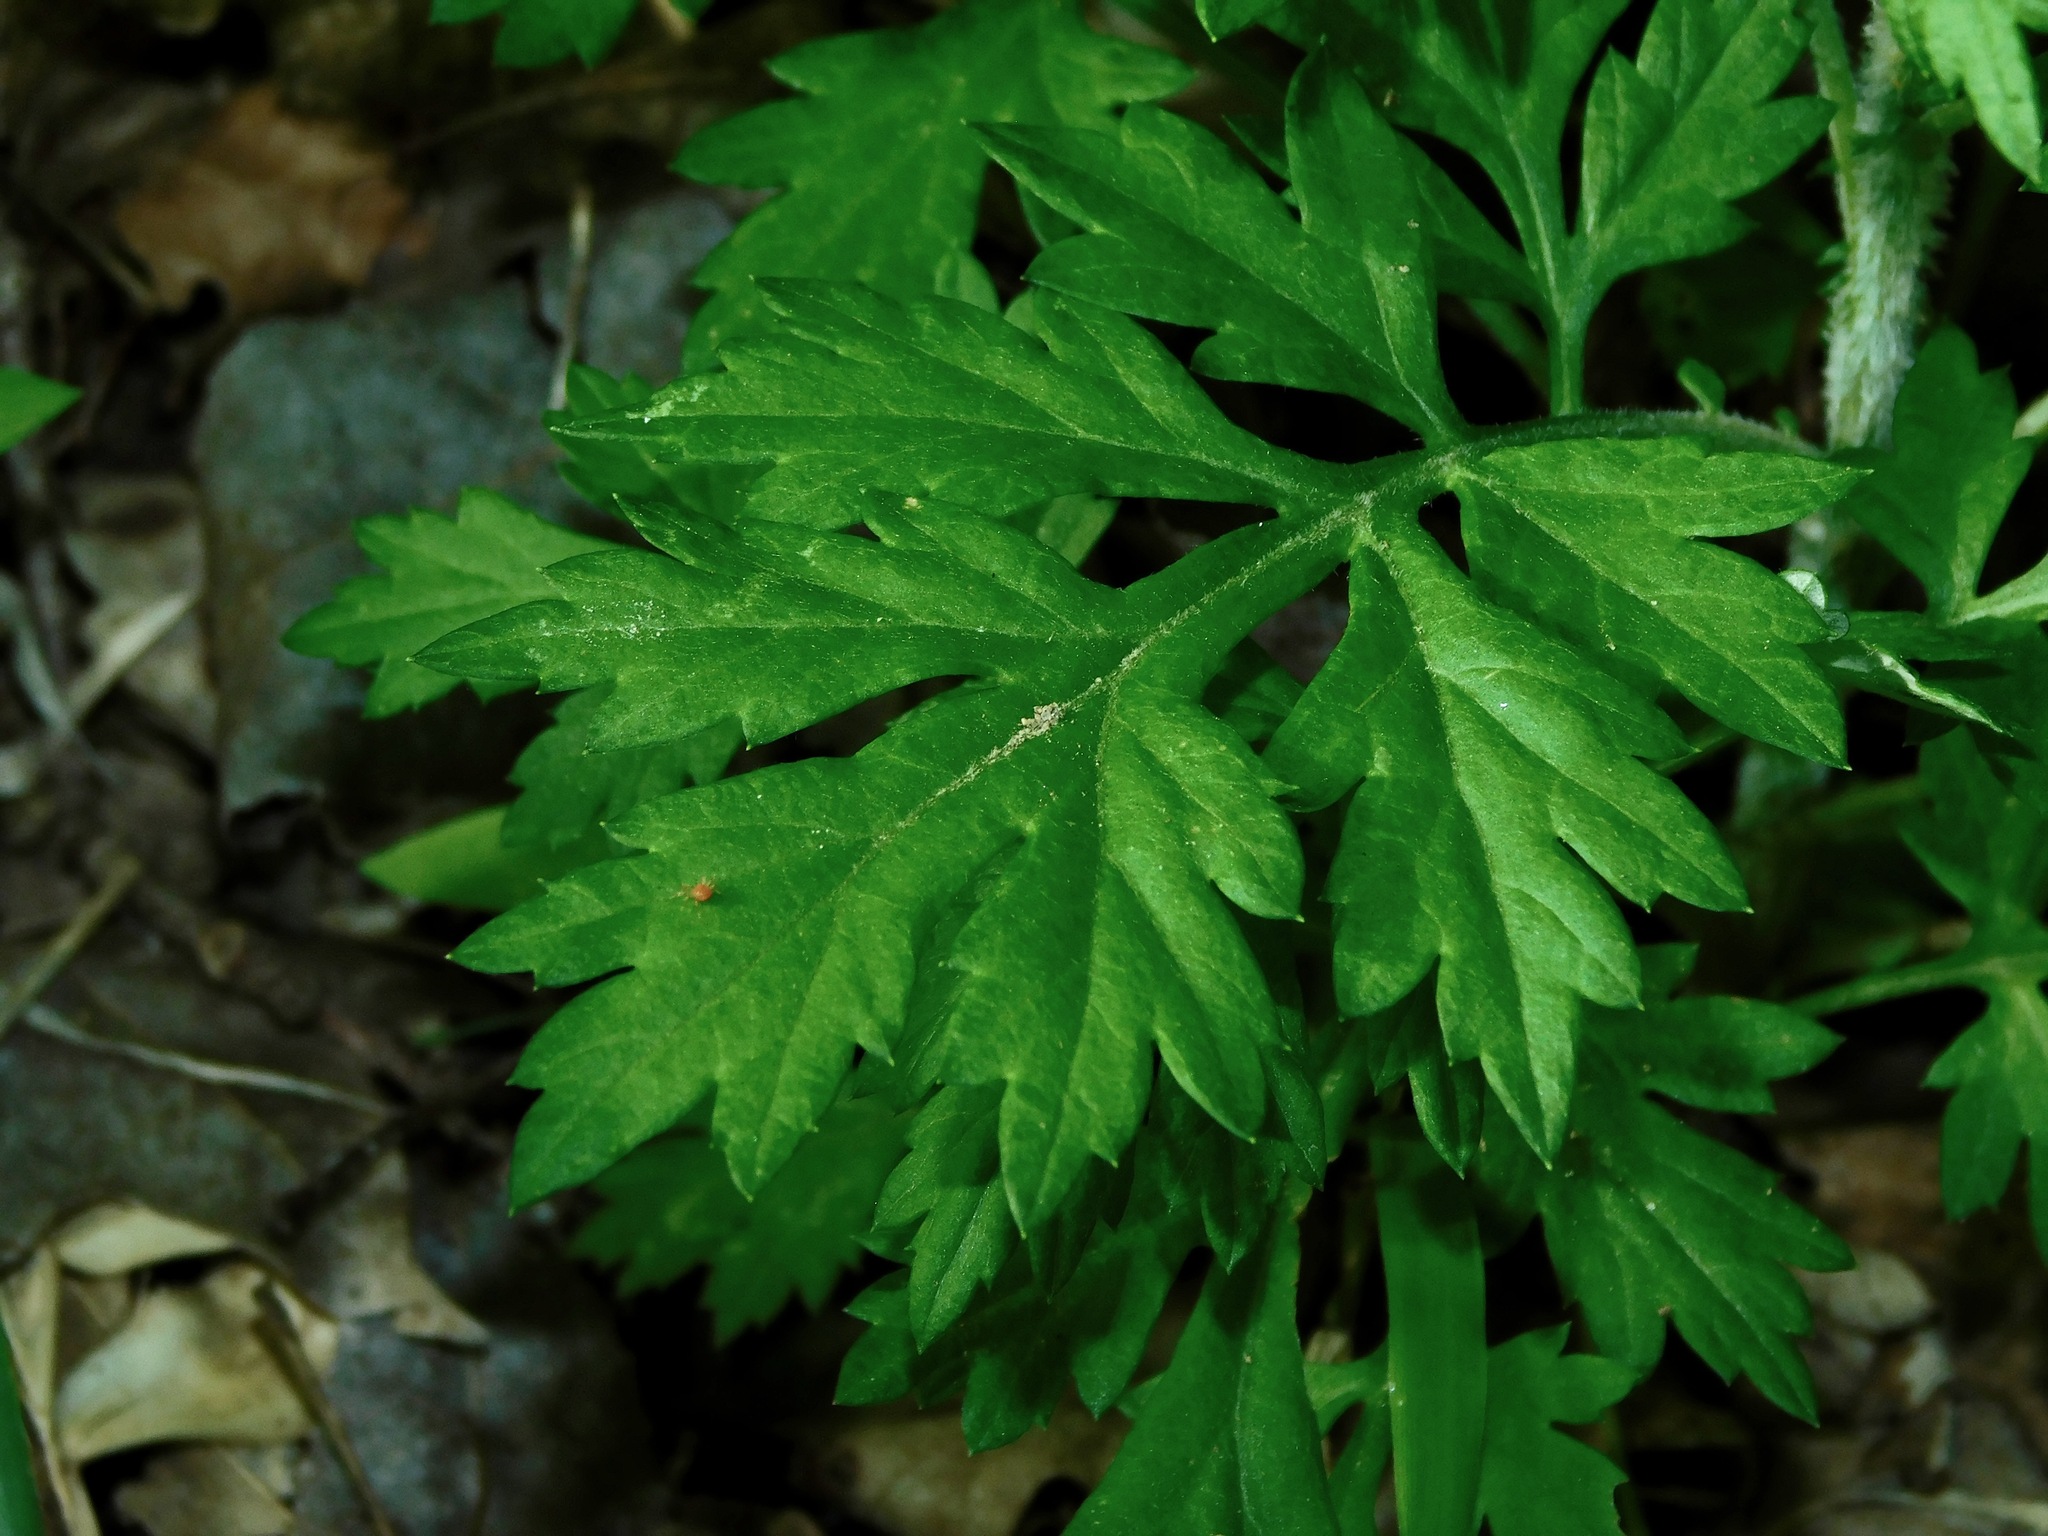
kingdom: Plantae
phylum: Tracheophyta
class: Magnoliopsida
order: Asterales
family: Asteraceae
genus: Artemisia
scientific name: Artemisia vulgaris
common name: Mugwort
